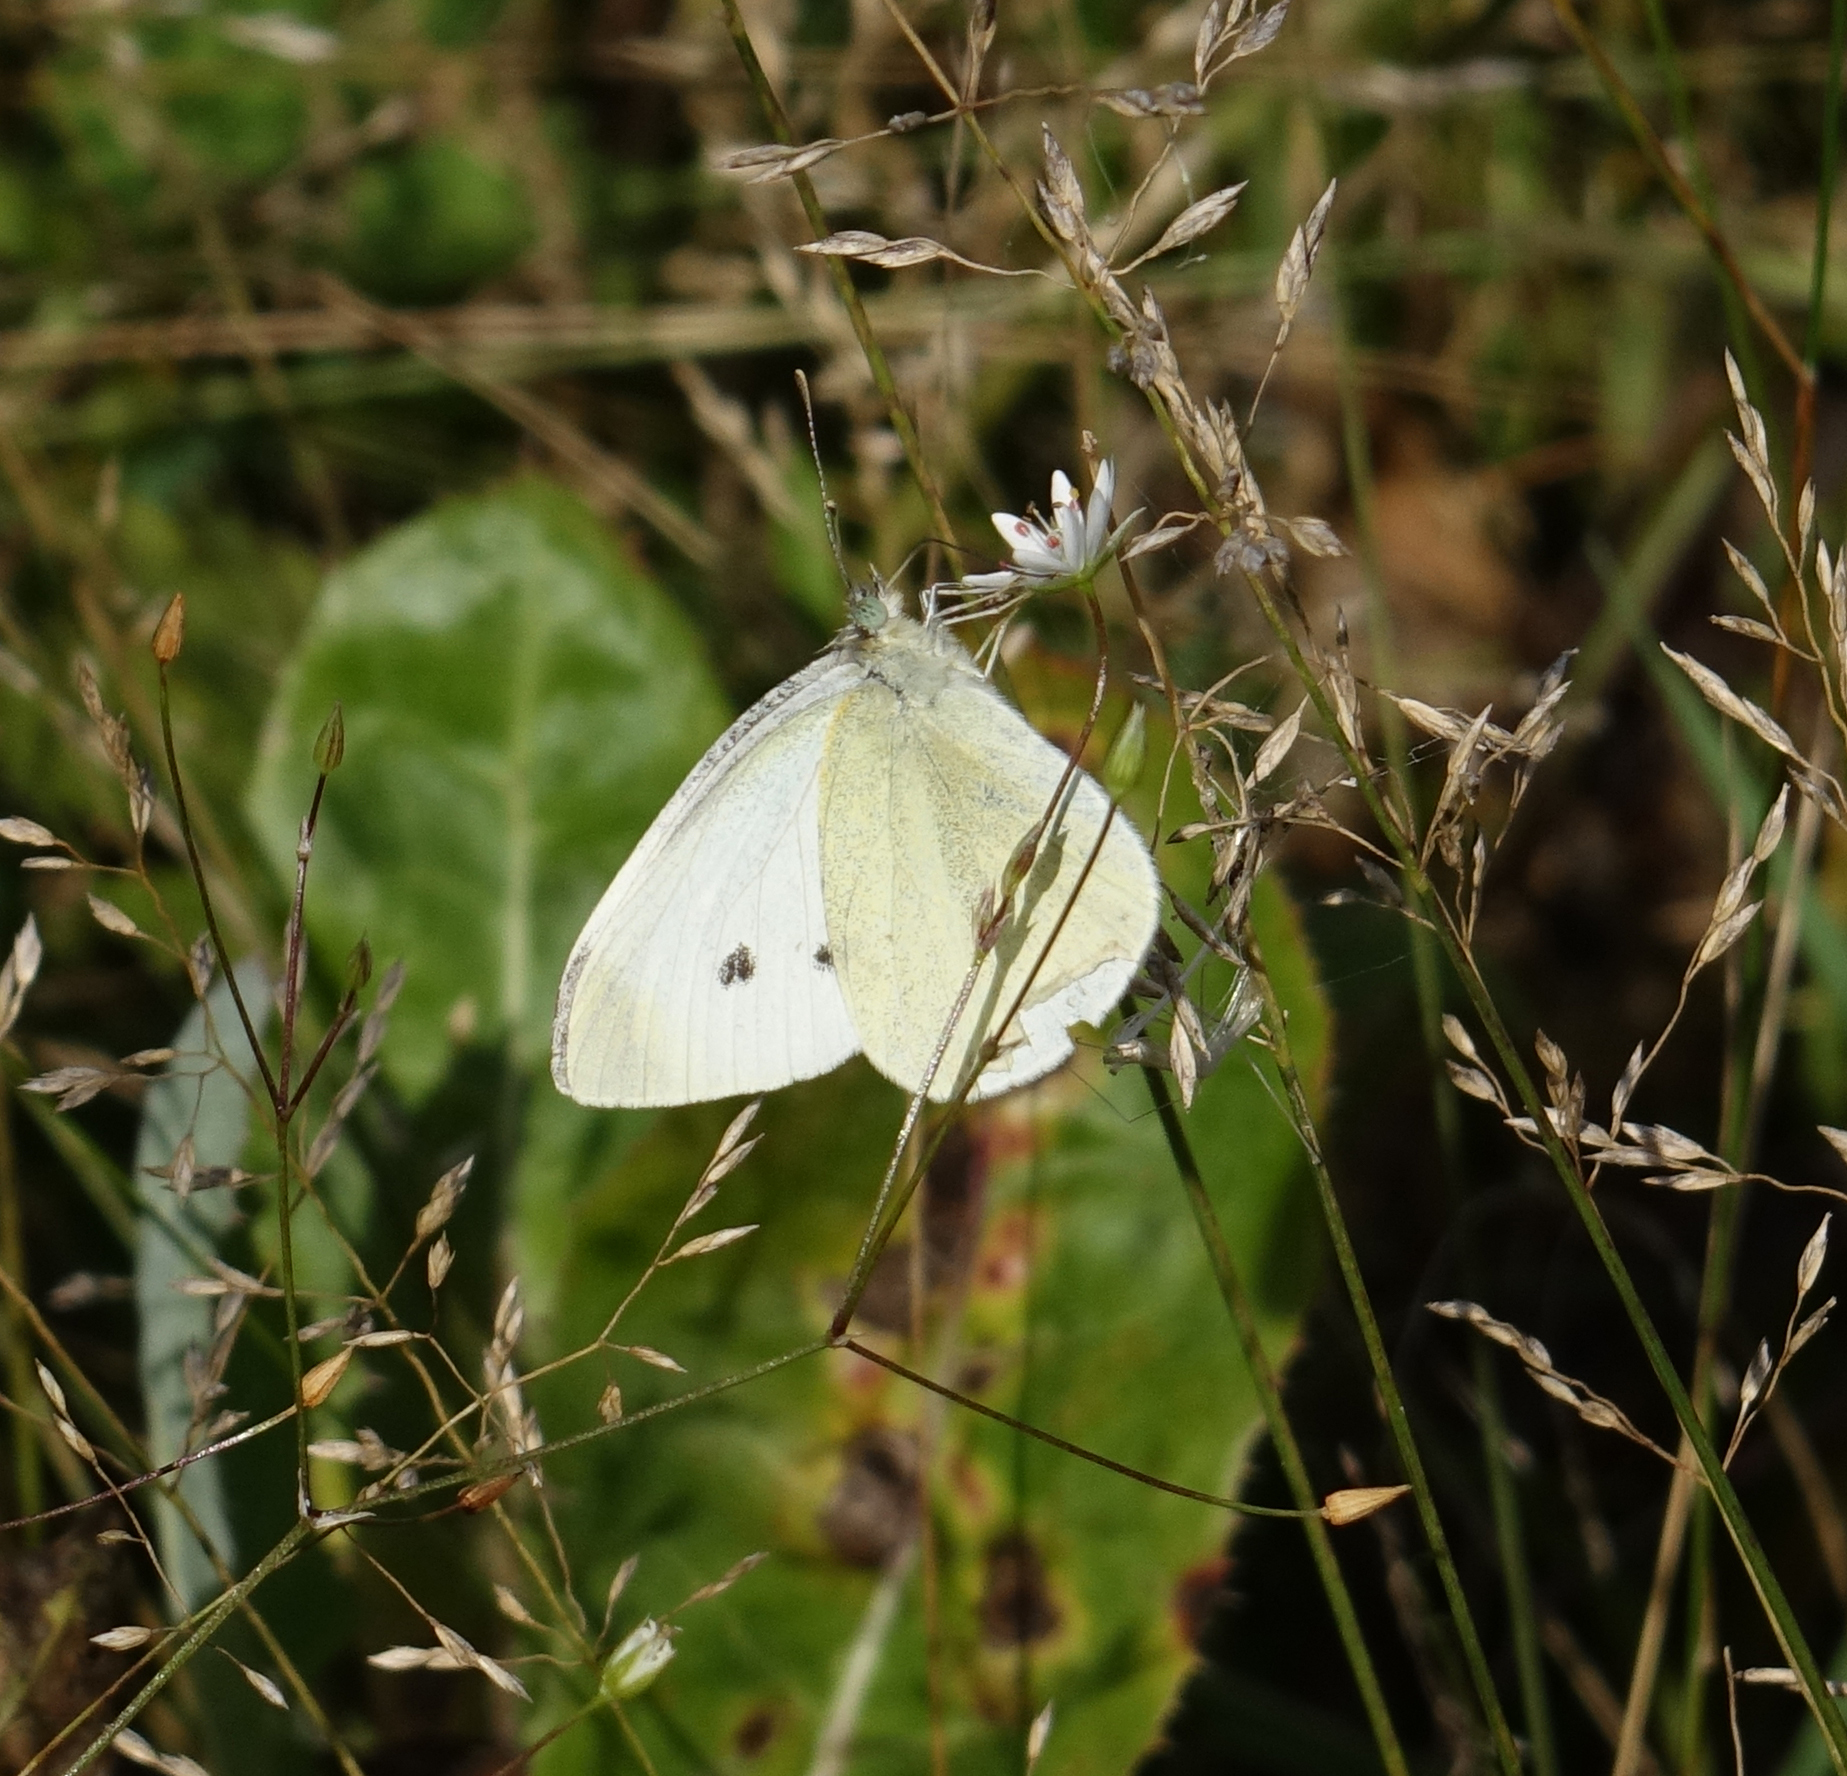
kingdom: Animalia
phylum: Arthropoda
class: Insecta
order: Lepidoptera
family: Pieridae
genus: Pieris
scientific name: Pieris rapae
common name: Small white
